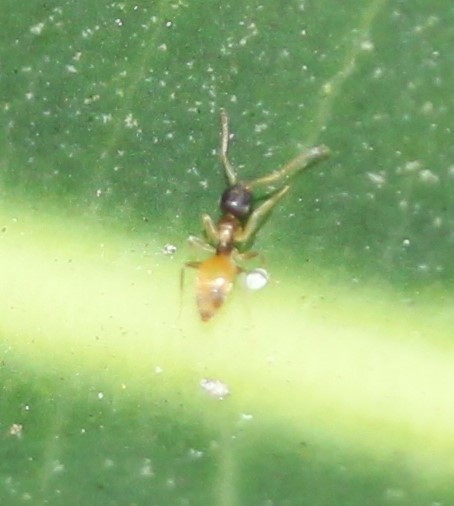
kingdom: Animalia
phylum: Arthropoda
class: Insecta
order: Hymenoptera
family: Formicidae
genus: Tapinoma
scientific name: Tapinoma melanocephalum
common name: Ghost ant
